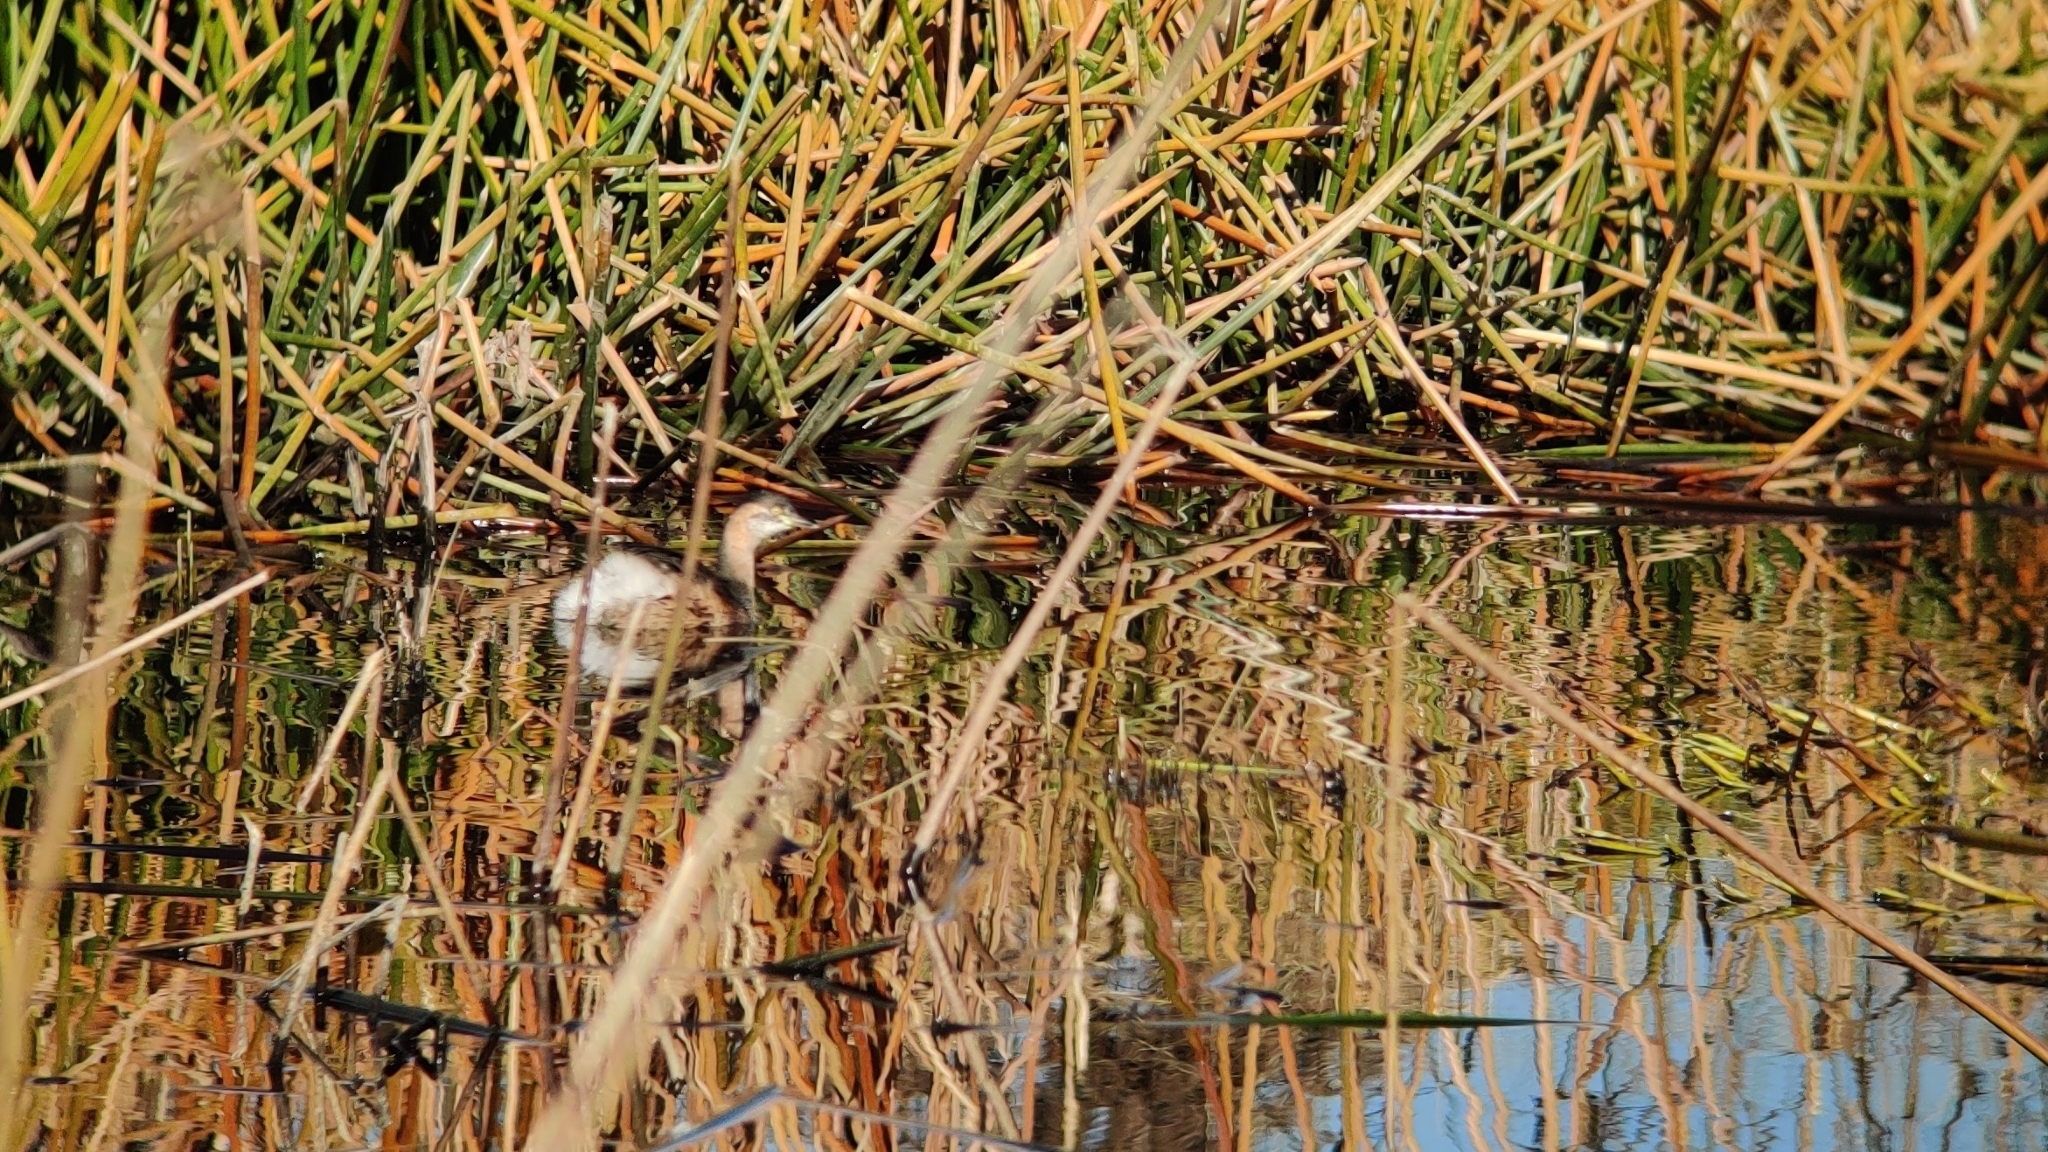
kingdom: Animalia
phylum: Chordata
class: Aves
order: Podicipediformes
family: Podicipedidae
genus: Tachybaptus
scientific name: Tachybaptus novaehollandiae
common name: Australasian grebe
